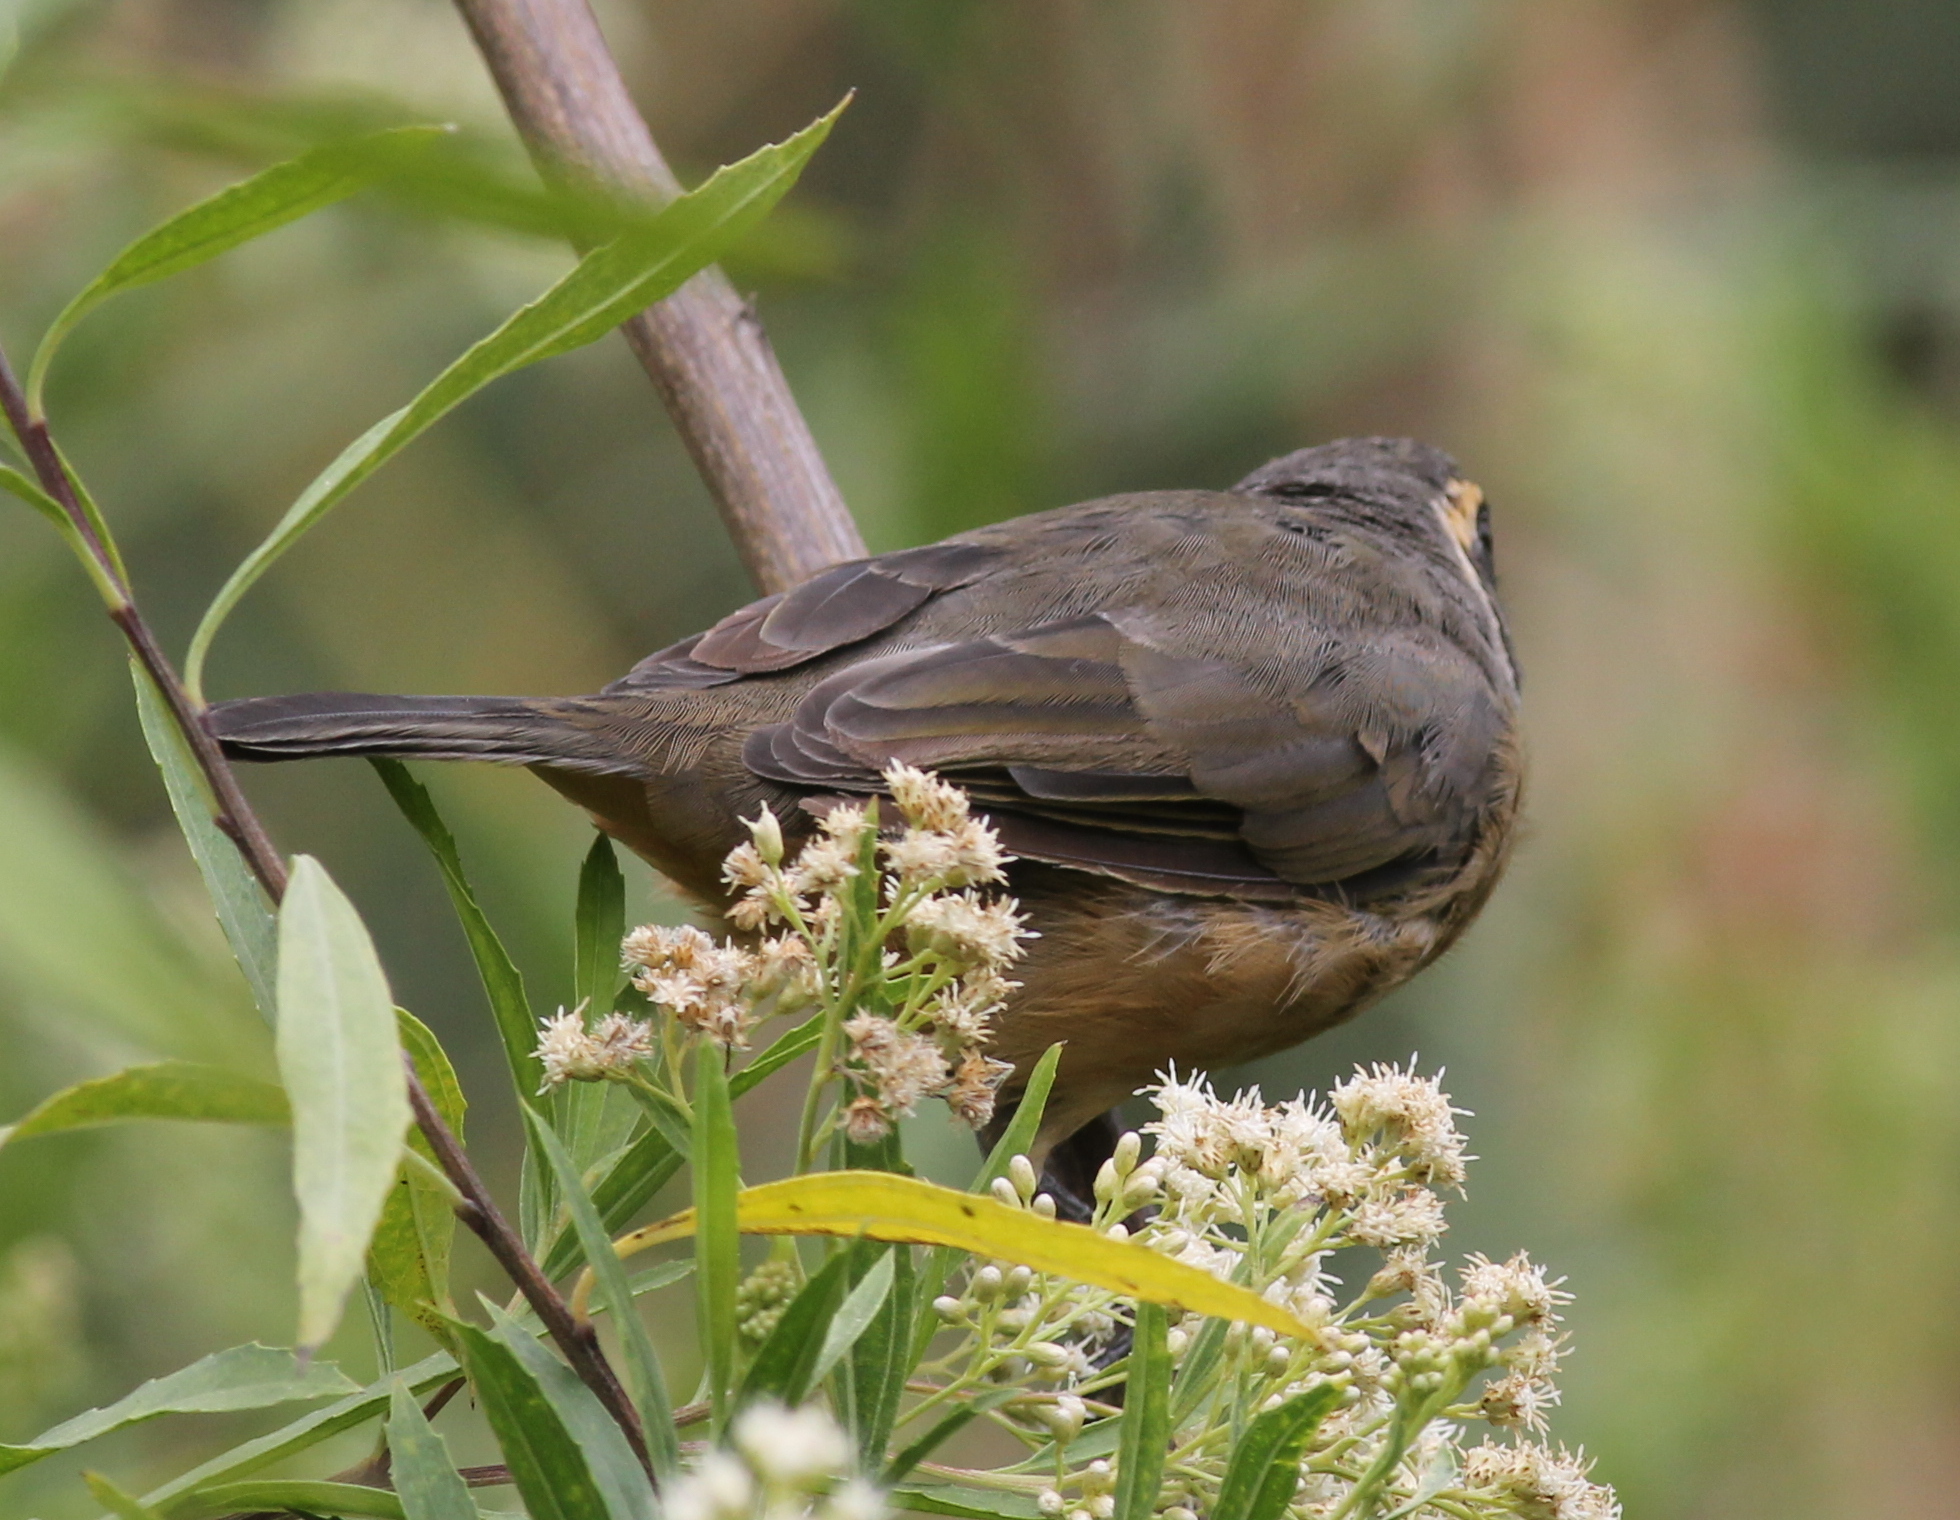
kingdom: Animalia
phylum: Chordata
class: Aves
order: Passeriformes
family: Thraupidae
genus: Saltator
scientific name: Saltator aurantiirostris
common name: Golden-billed saltator
